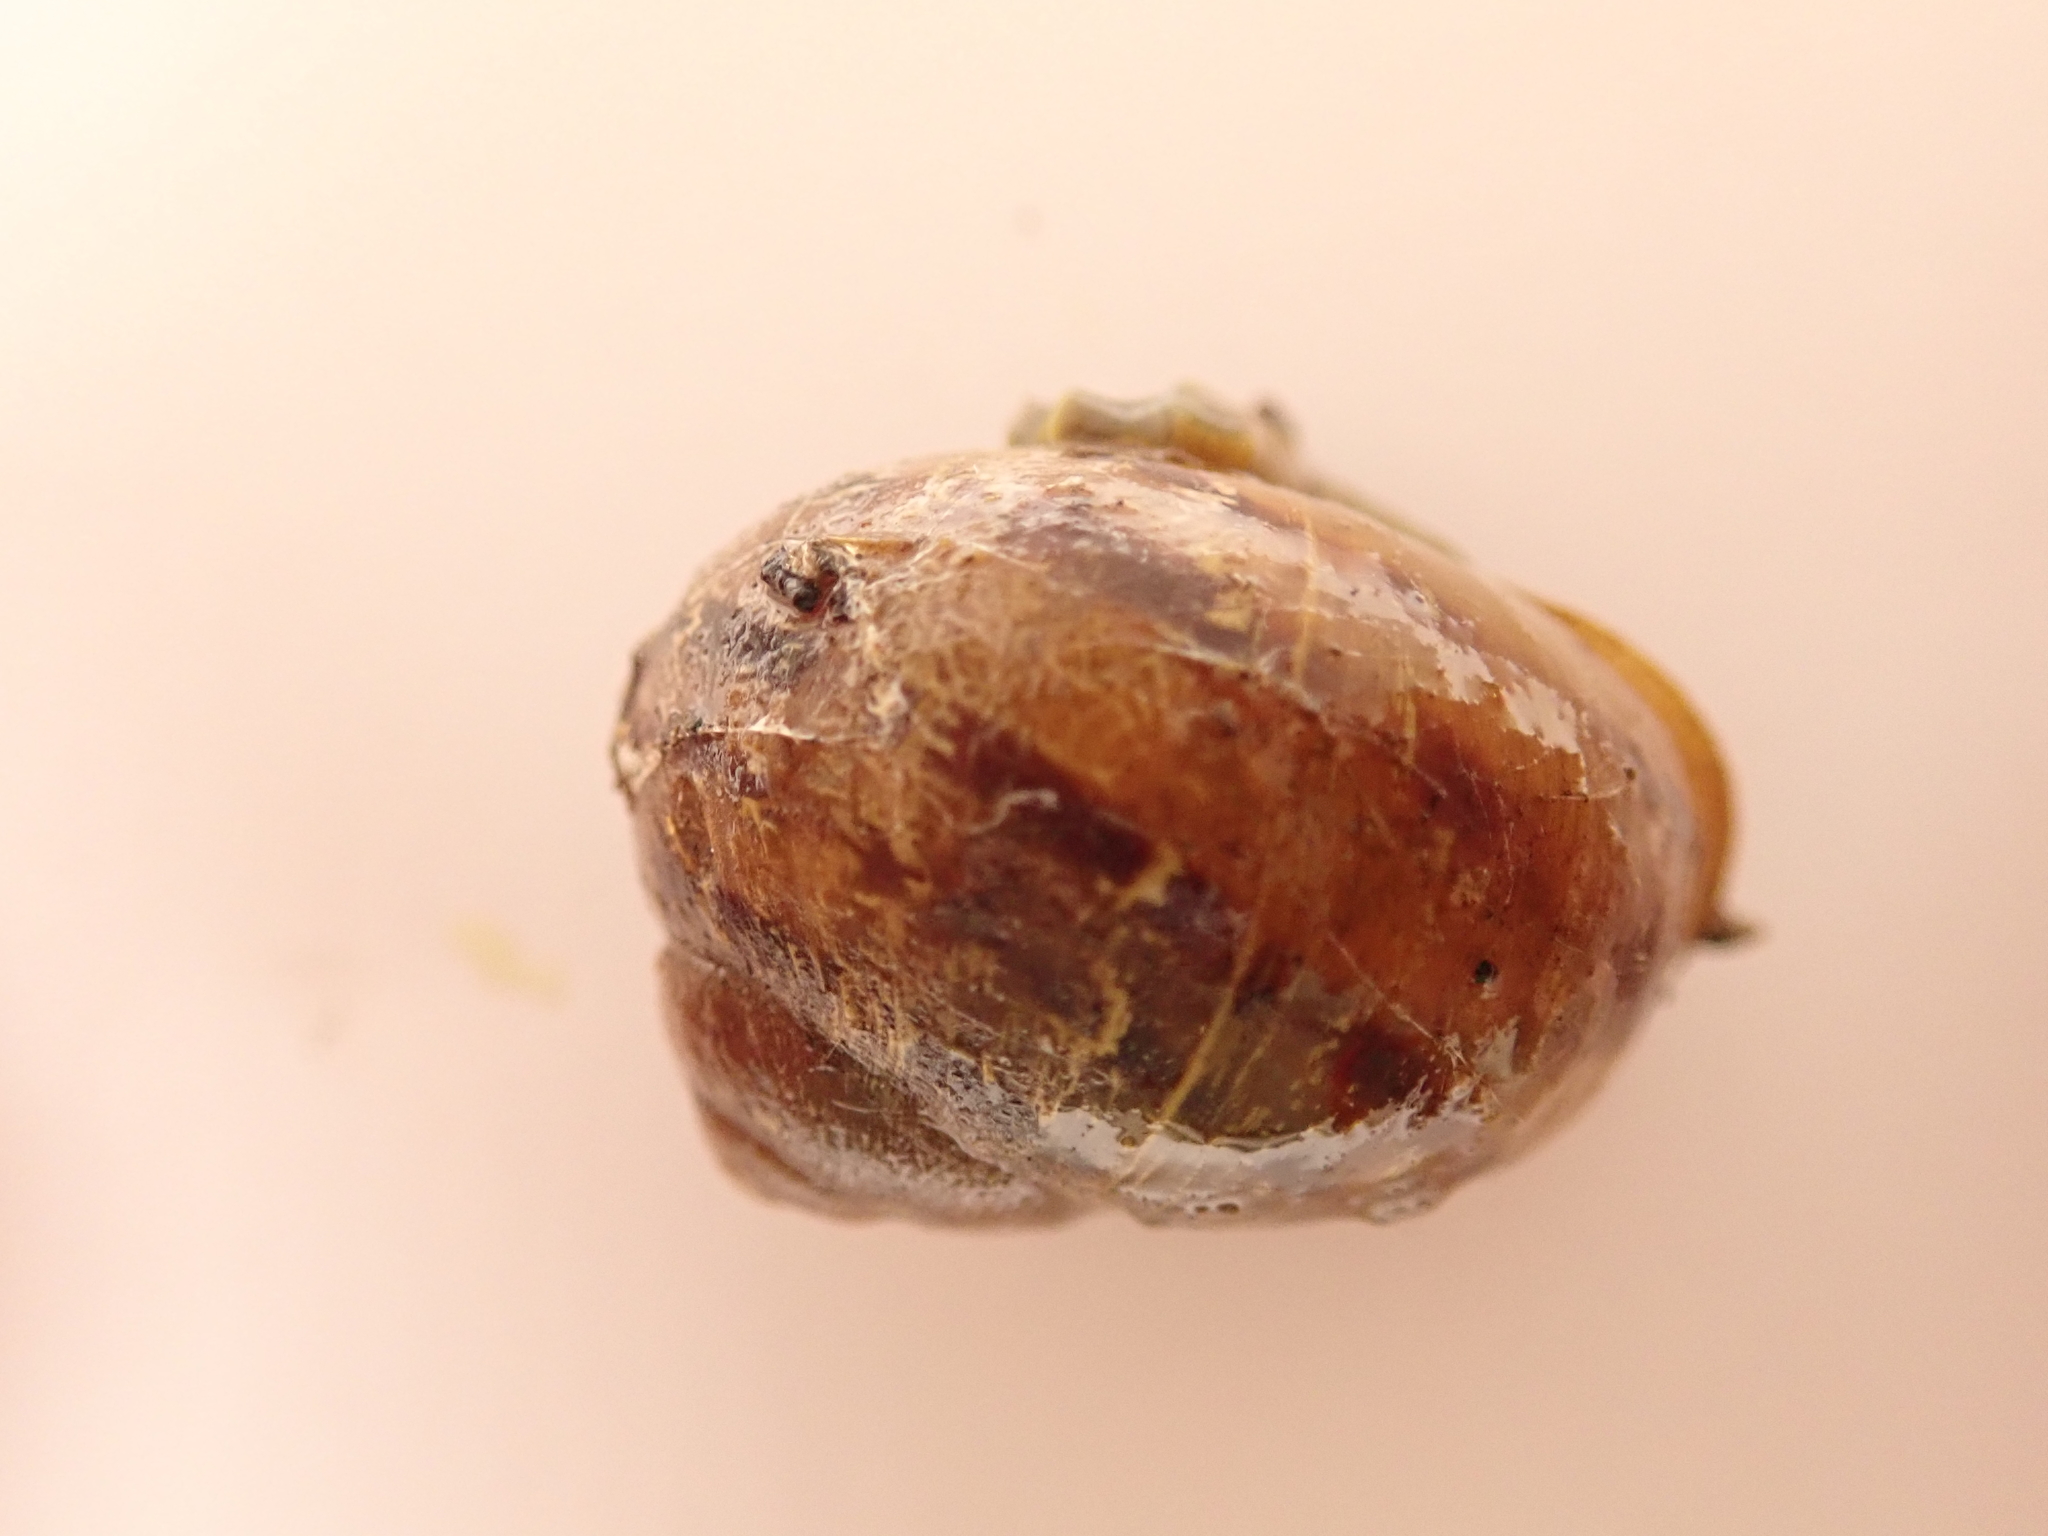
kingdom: Animalia
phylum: Mollusca
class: Gastropoda
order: Stylommatophora
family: Helicidae
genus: Cornu
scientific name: Cornu aspersum
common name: Brown garden snail
